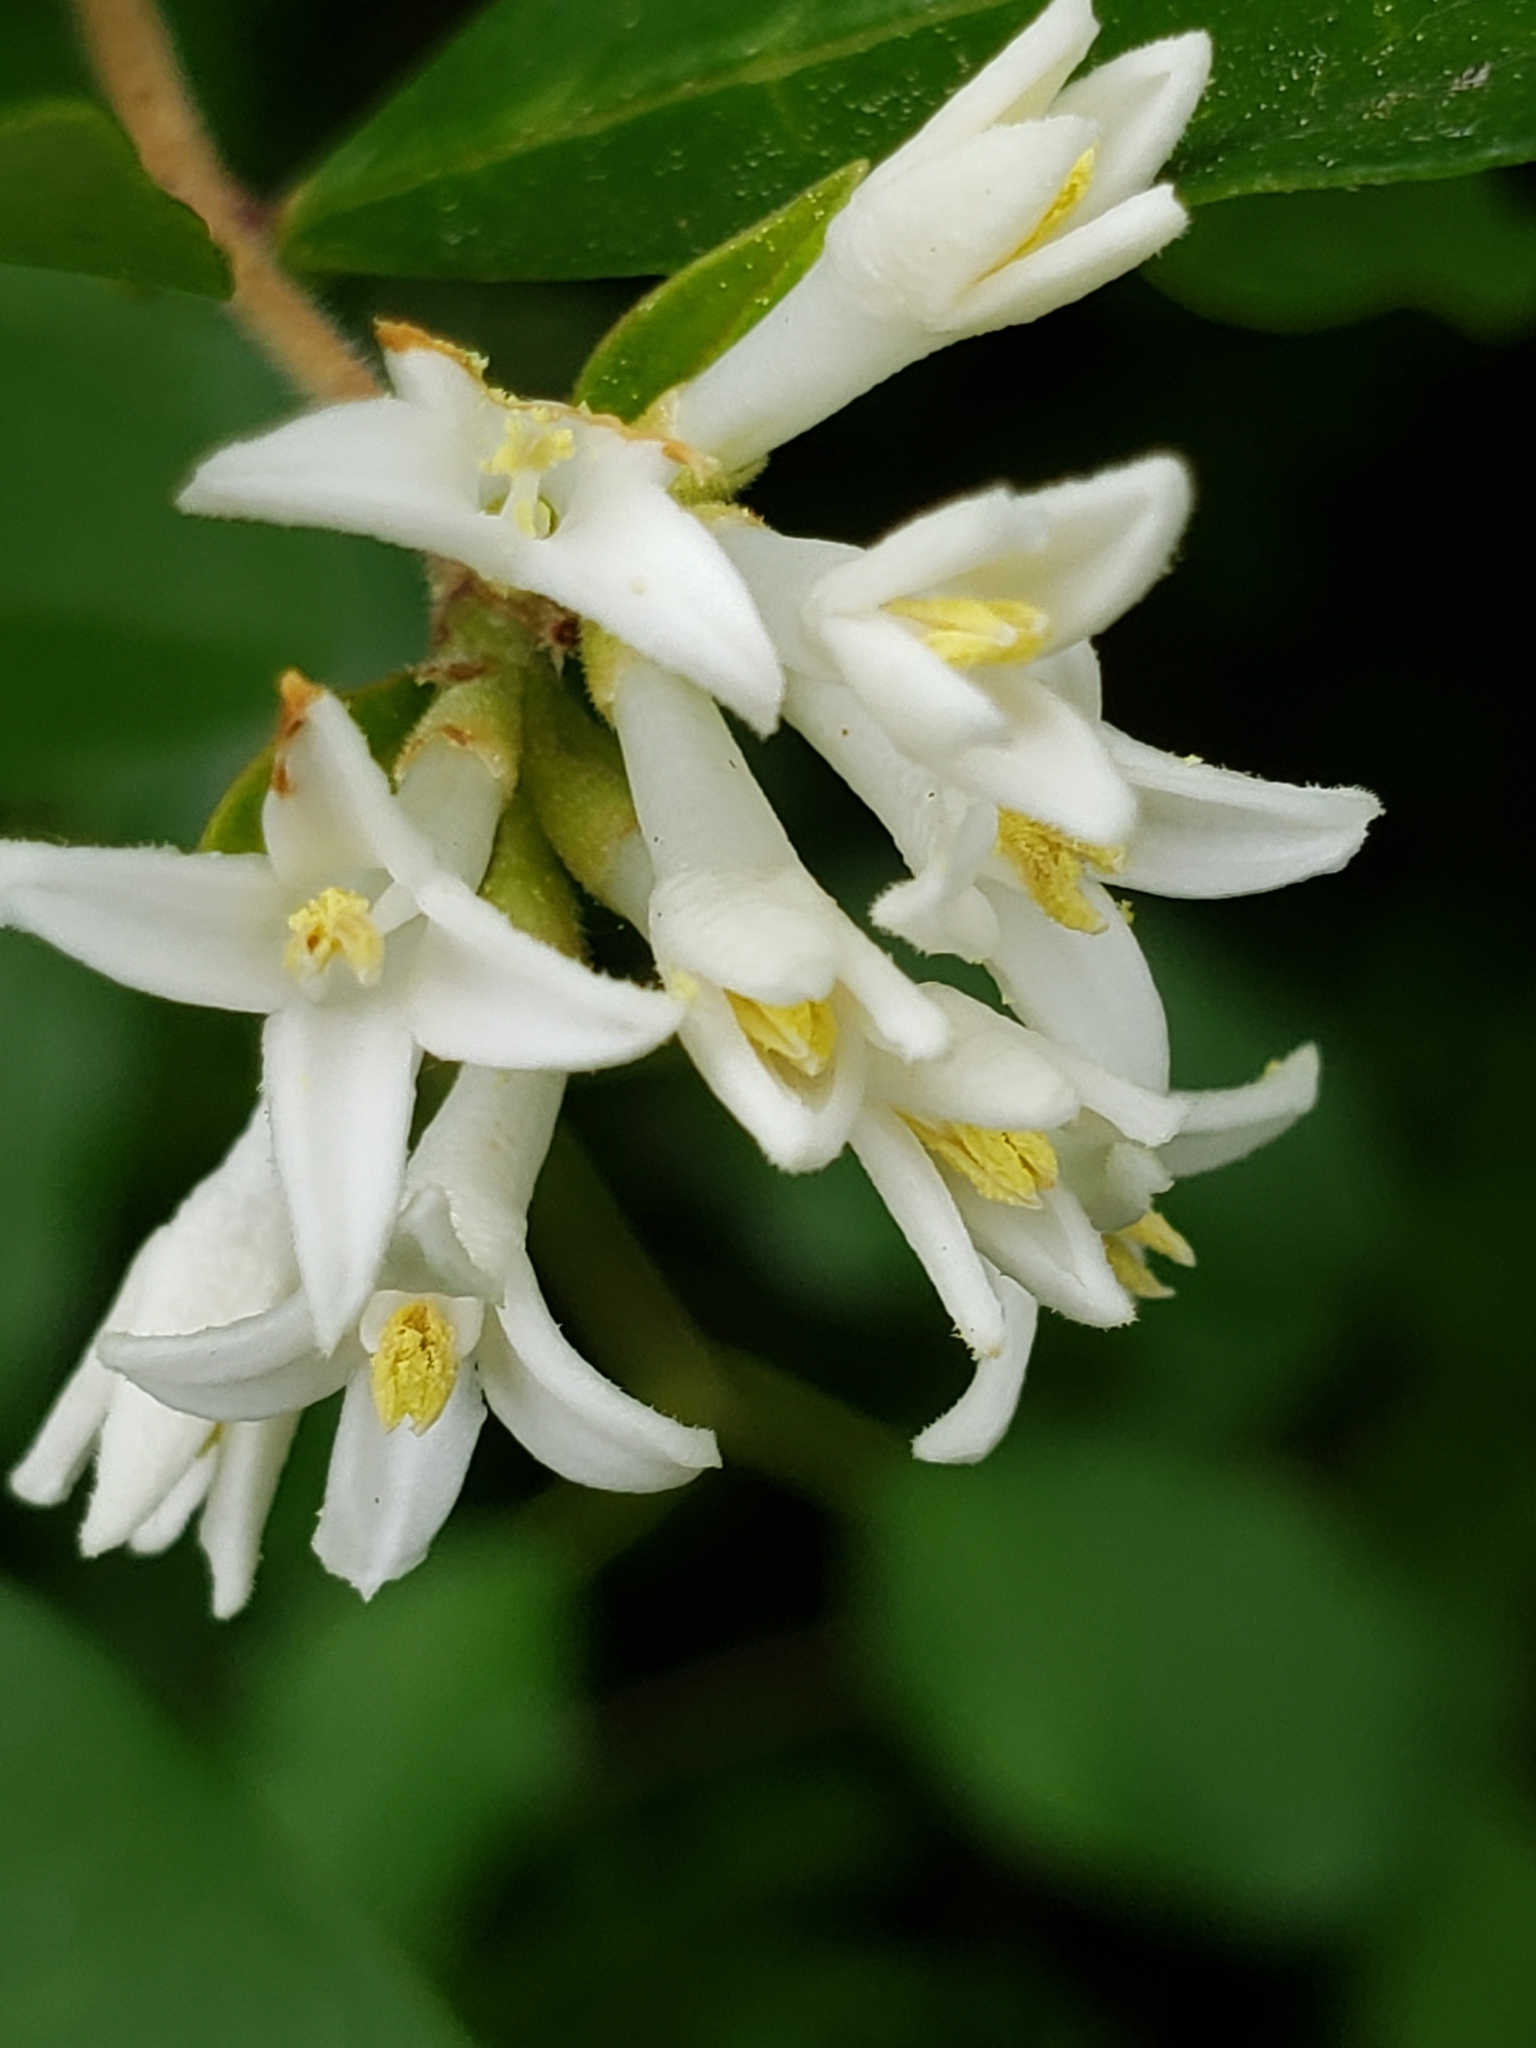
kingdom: Plantae
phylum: Tracheophyta
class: Magnoliopsida
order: Lamiales
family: Oleaceae
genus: Ligustrum
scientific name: Ligustrum obtusifolium
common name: Border privet
